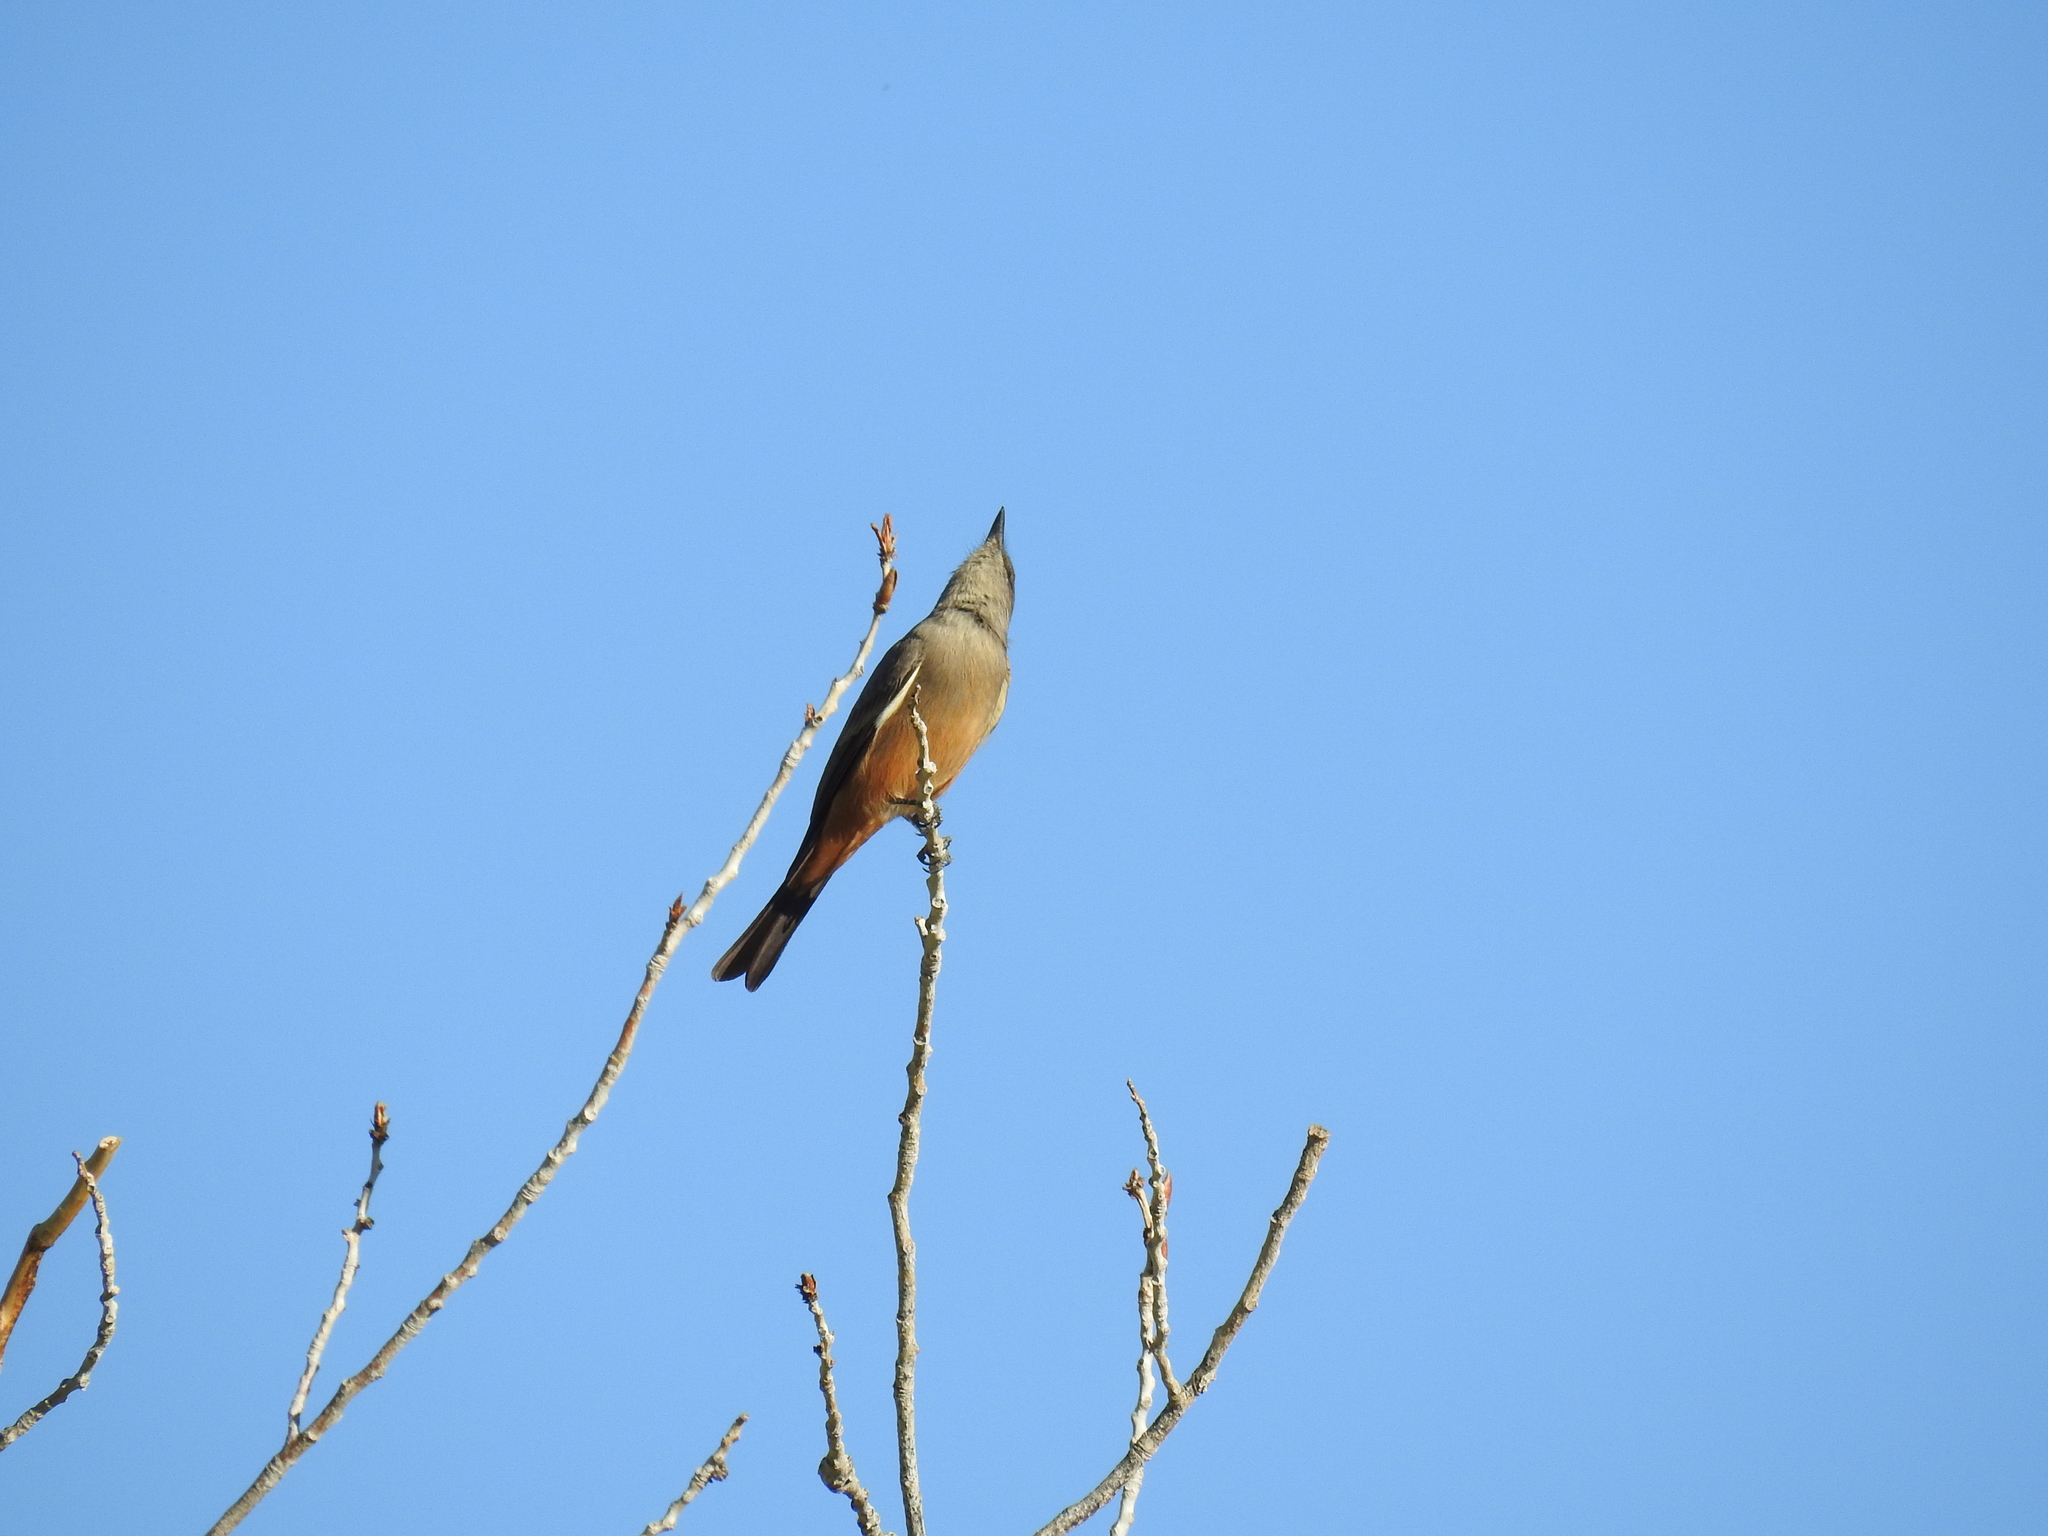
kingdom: Animalia
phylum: Chordata
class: Aves
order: Passeriformes
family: Tyrannidae
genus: Sayornis
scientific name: Sayornis saya
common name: Say's phoebe
